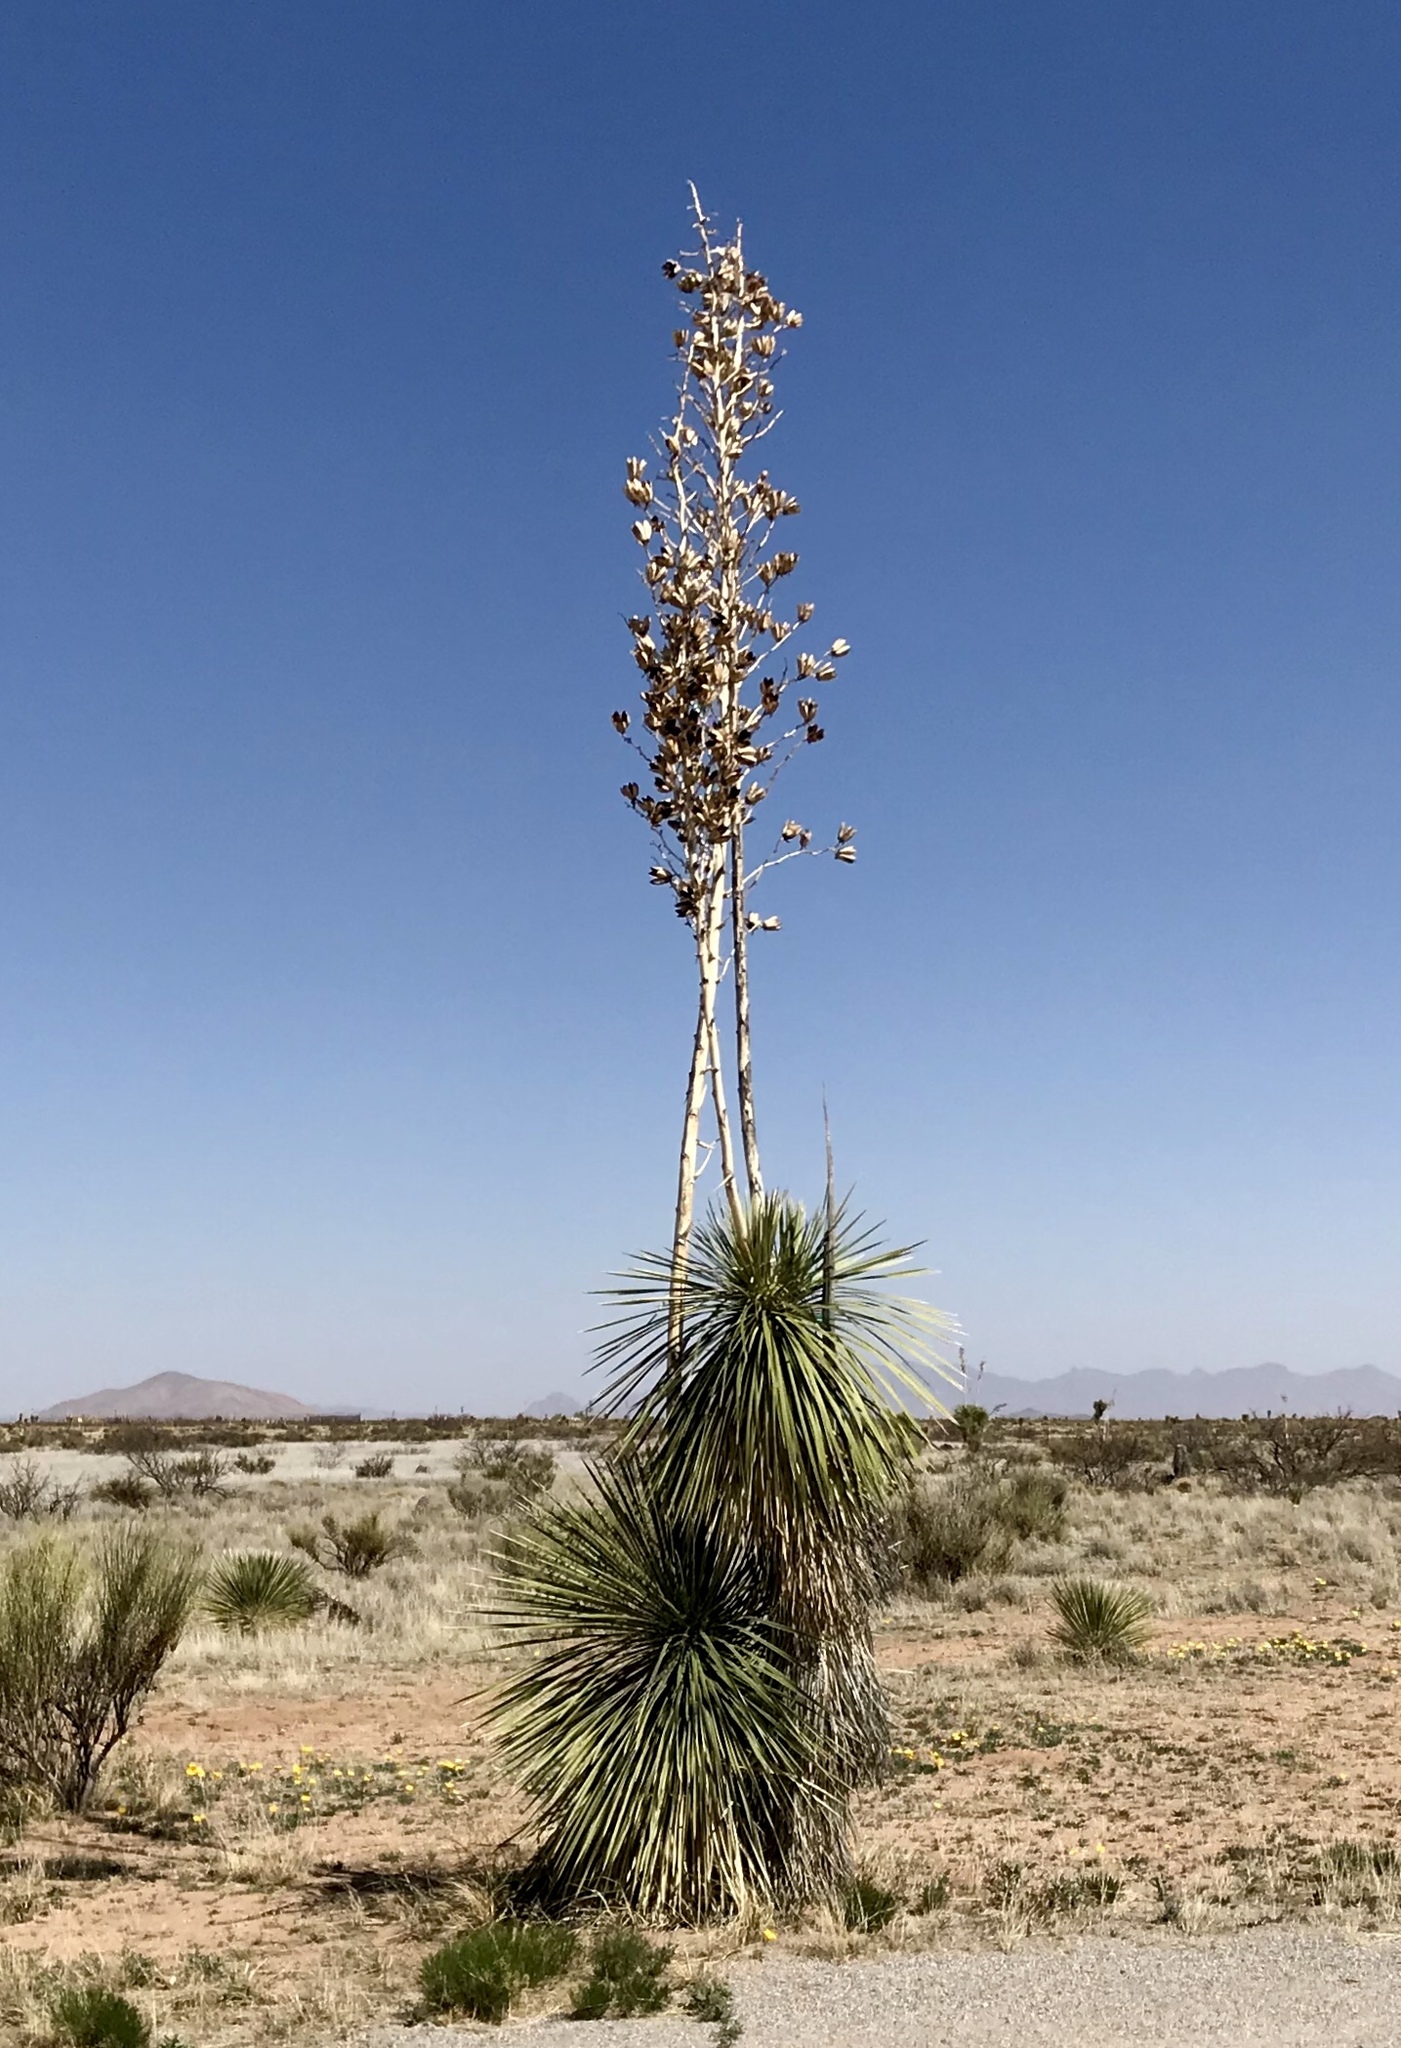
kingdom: Plantae
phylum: Tracheophyta
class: Liliopsida
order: Asparagales
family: Asparagaceae
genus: Yucca
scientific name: Yucca elata
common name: Palmella
